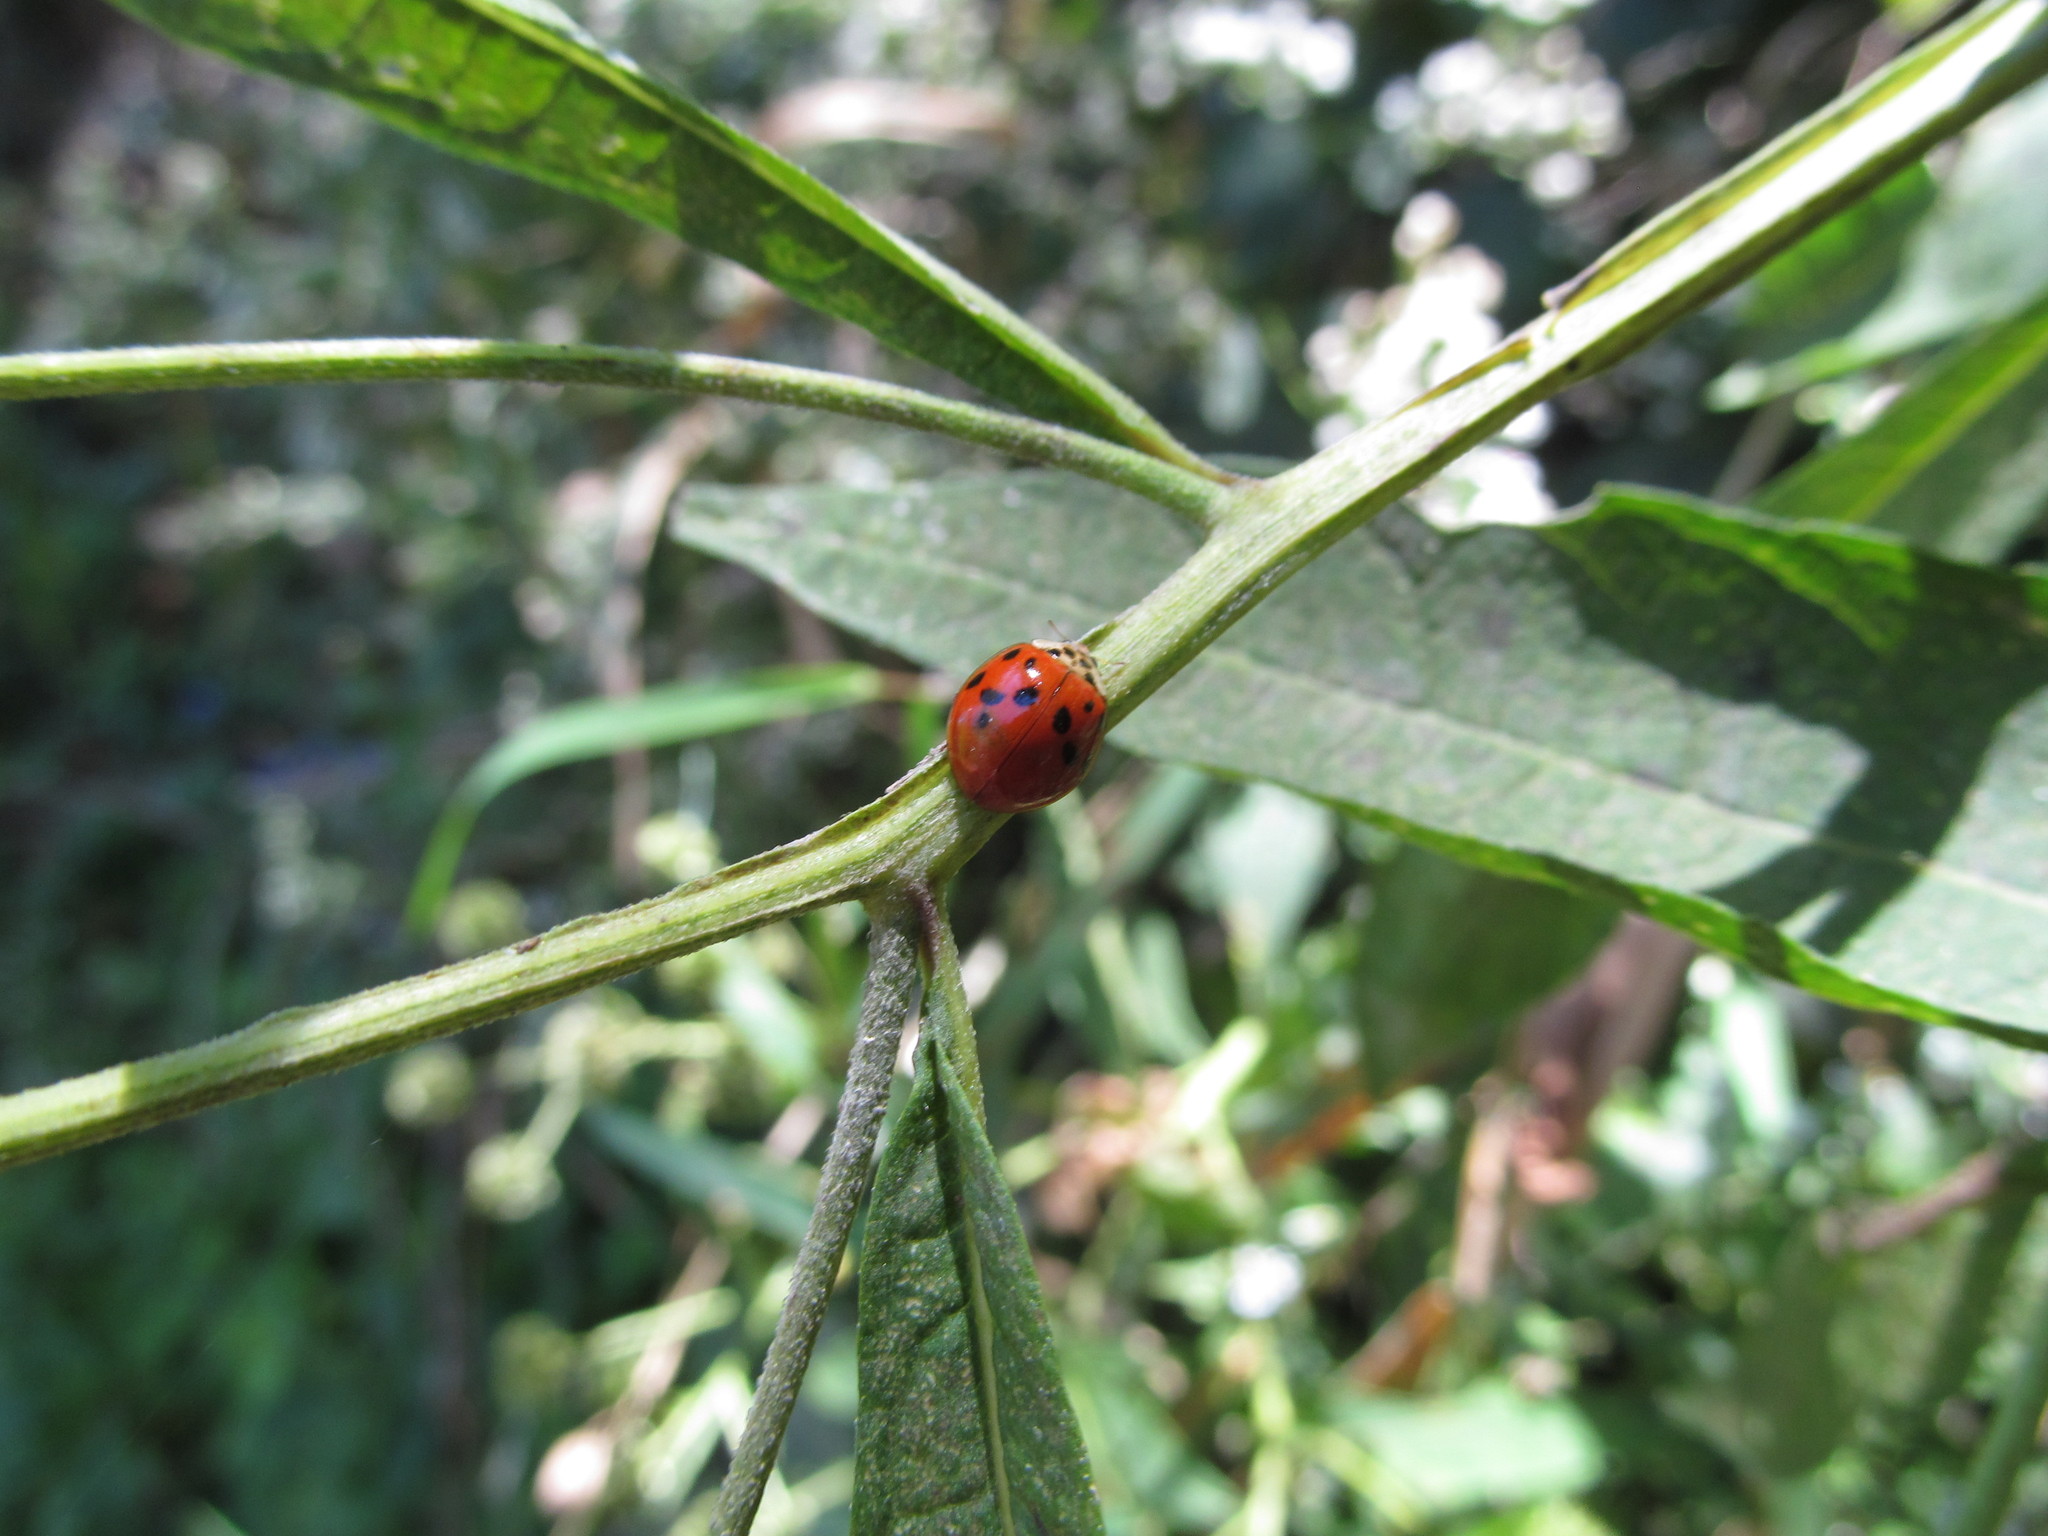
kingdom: Animalia
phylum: Arthropoda
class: Insecta
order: Coleoptera
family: Coccinellidae
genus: Harmonia
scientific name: Harmonia axyridis
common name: Harlequin ladybird
